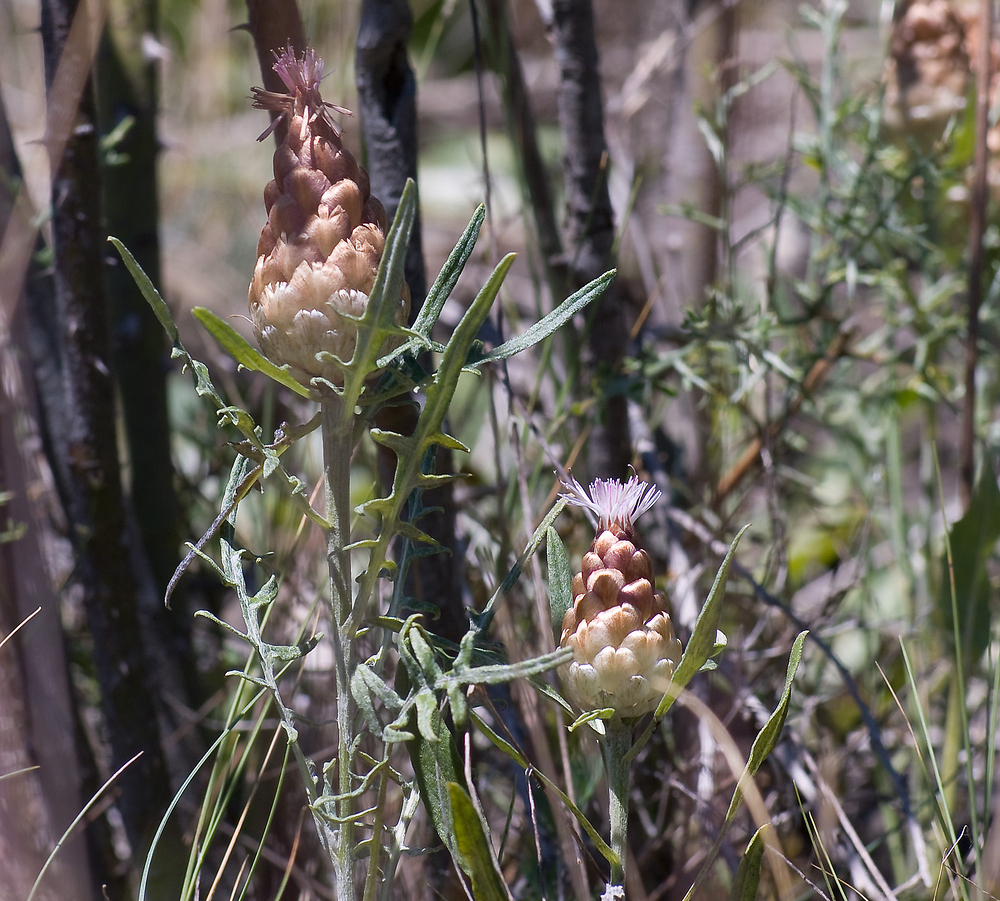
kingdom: Plantae
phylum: Tracheophyta
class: Magnoliopsida
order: Asterales
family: Asteraceae
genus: Leuzea
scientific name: Leuzea conifera
